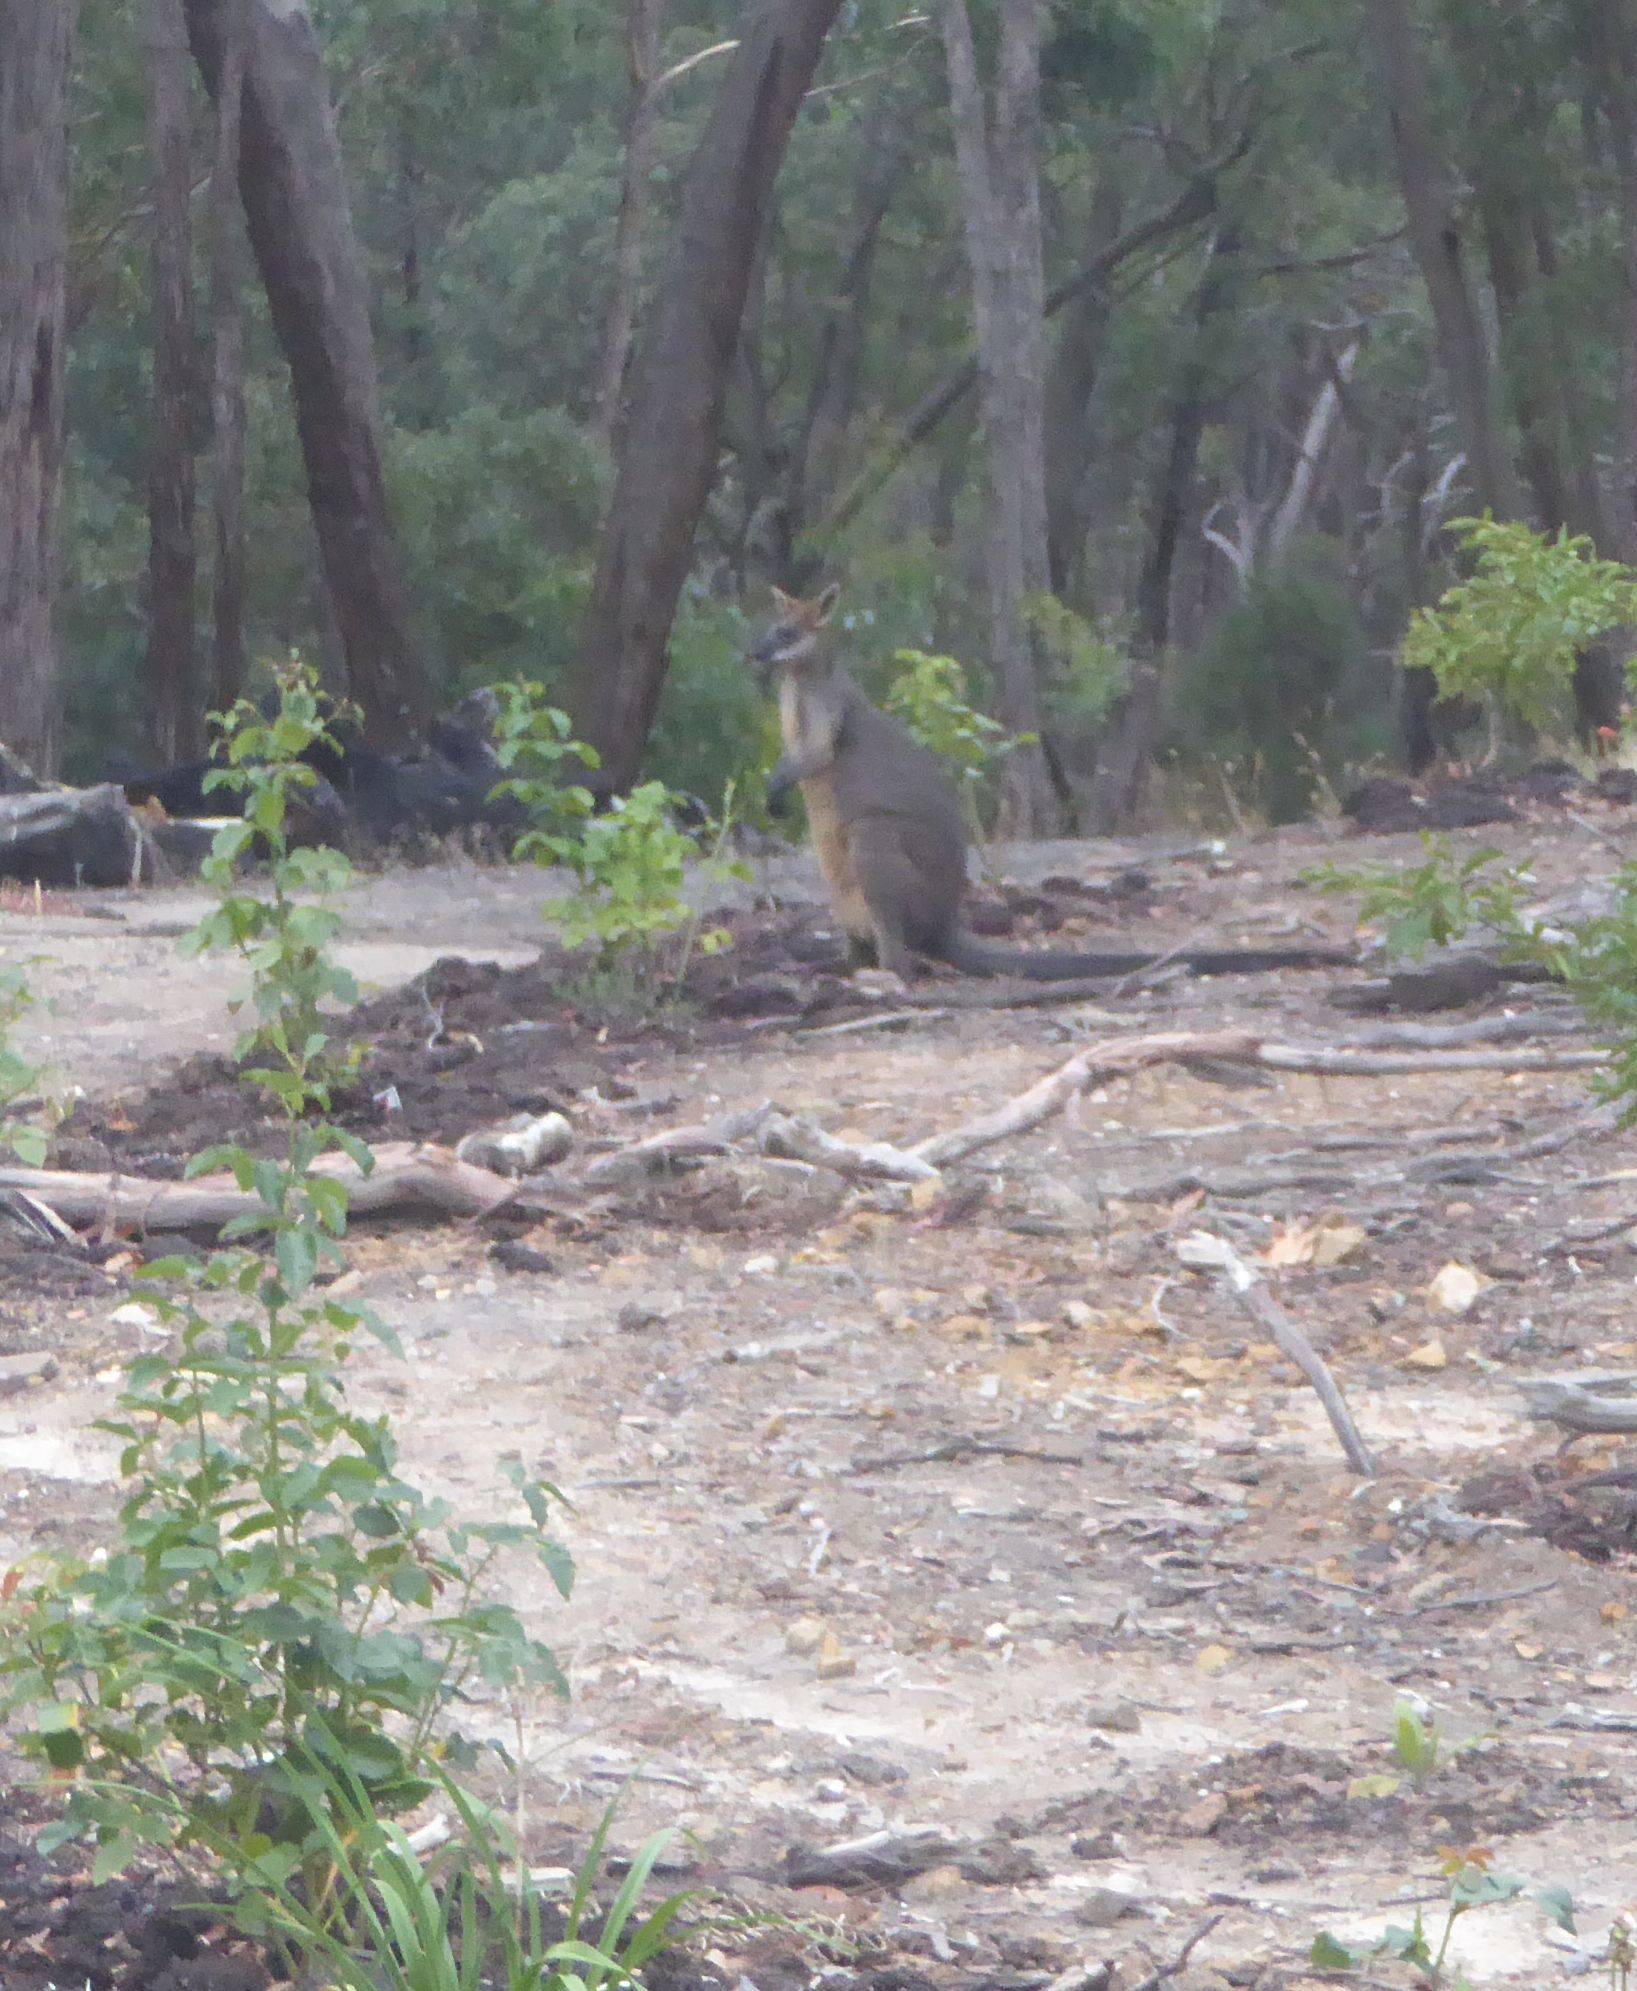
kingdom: Animalia
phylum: Chordata
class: Mammalia
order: Diprotodontia
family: Macropodidae
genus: Wallabia
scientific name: Wallabia bicolor
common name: Swamp wallaby
